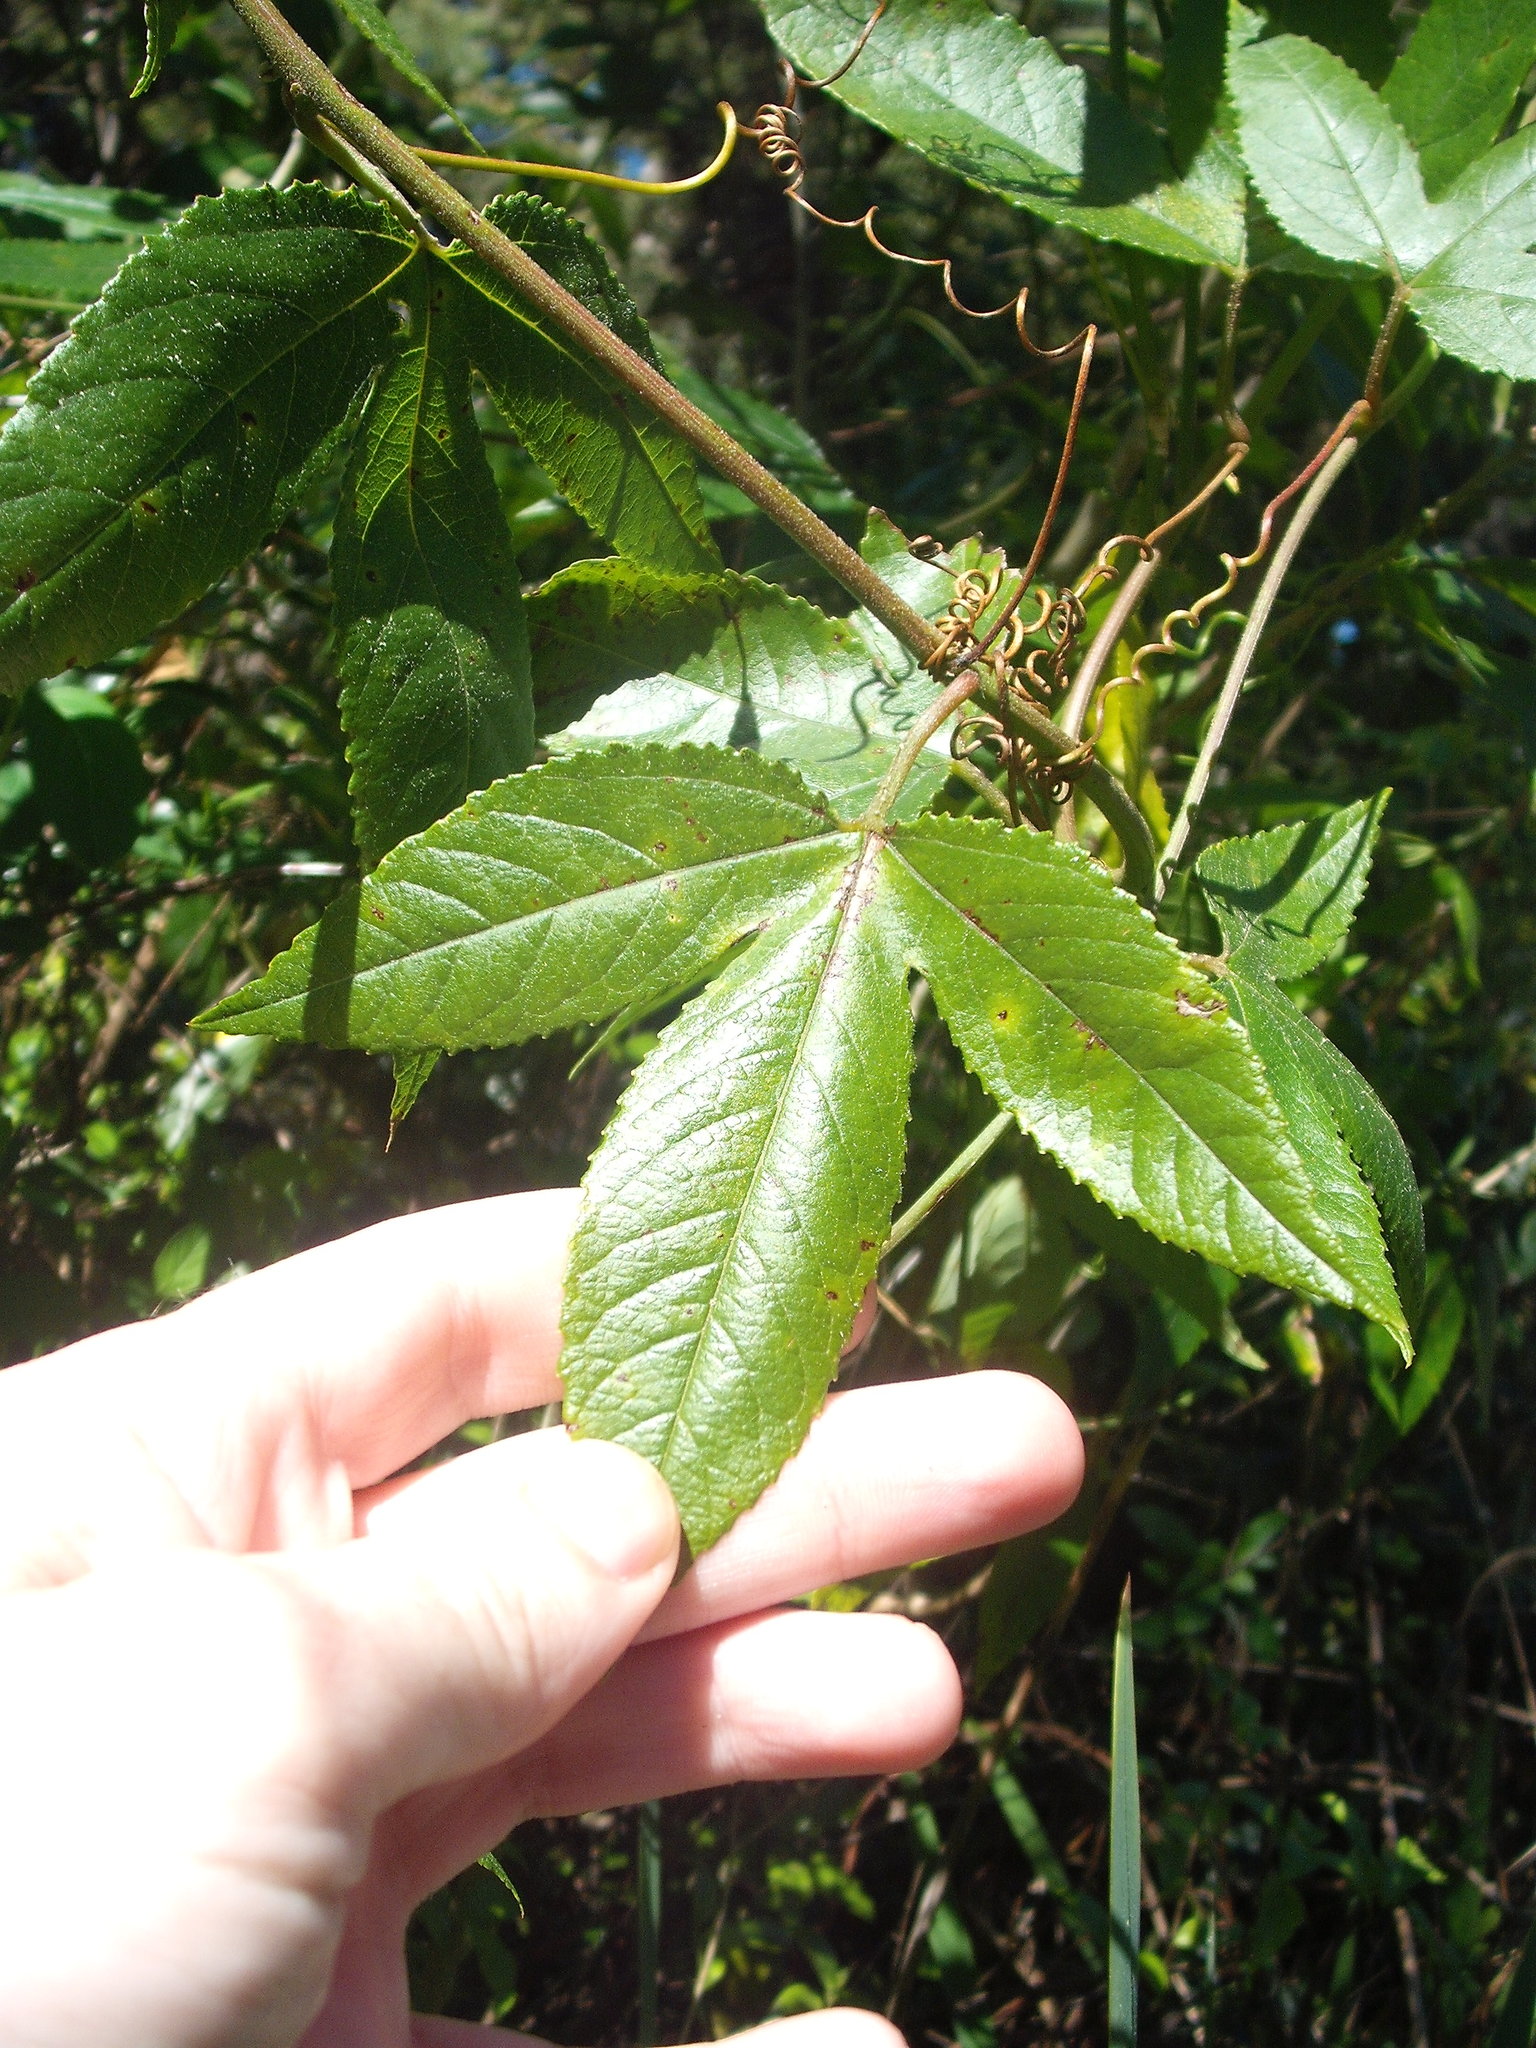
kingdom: Plantae
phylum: Tracheophyta
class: Magnoliopsida
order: Malpighiales
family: Passifloraceae
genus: Passiflora
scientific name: Passiflora tarminiana
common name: Banana poka
